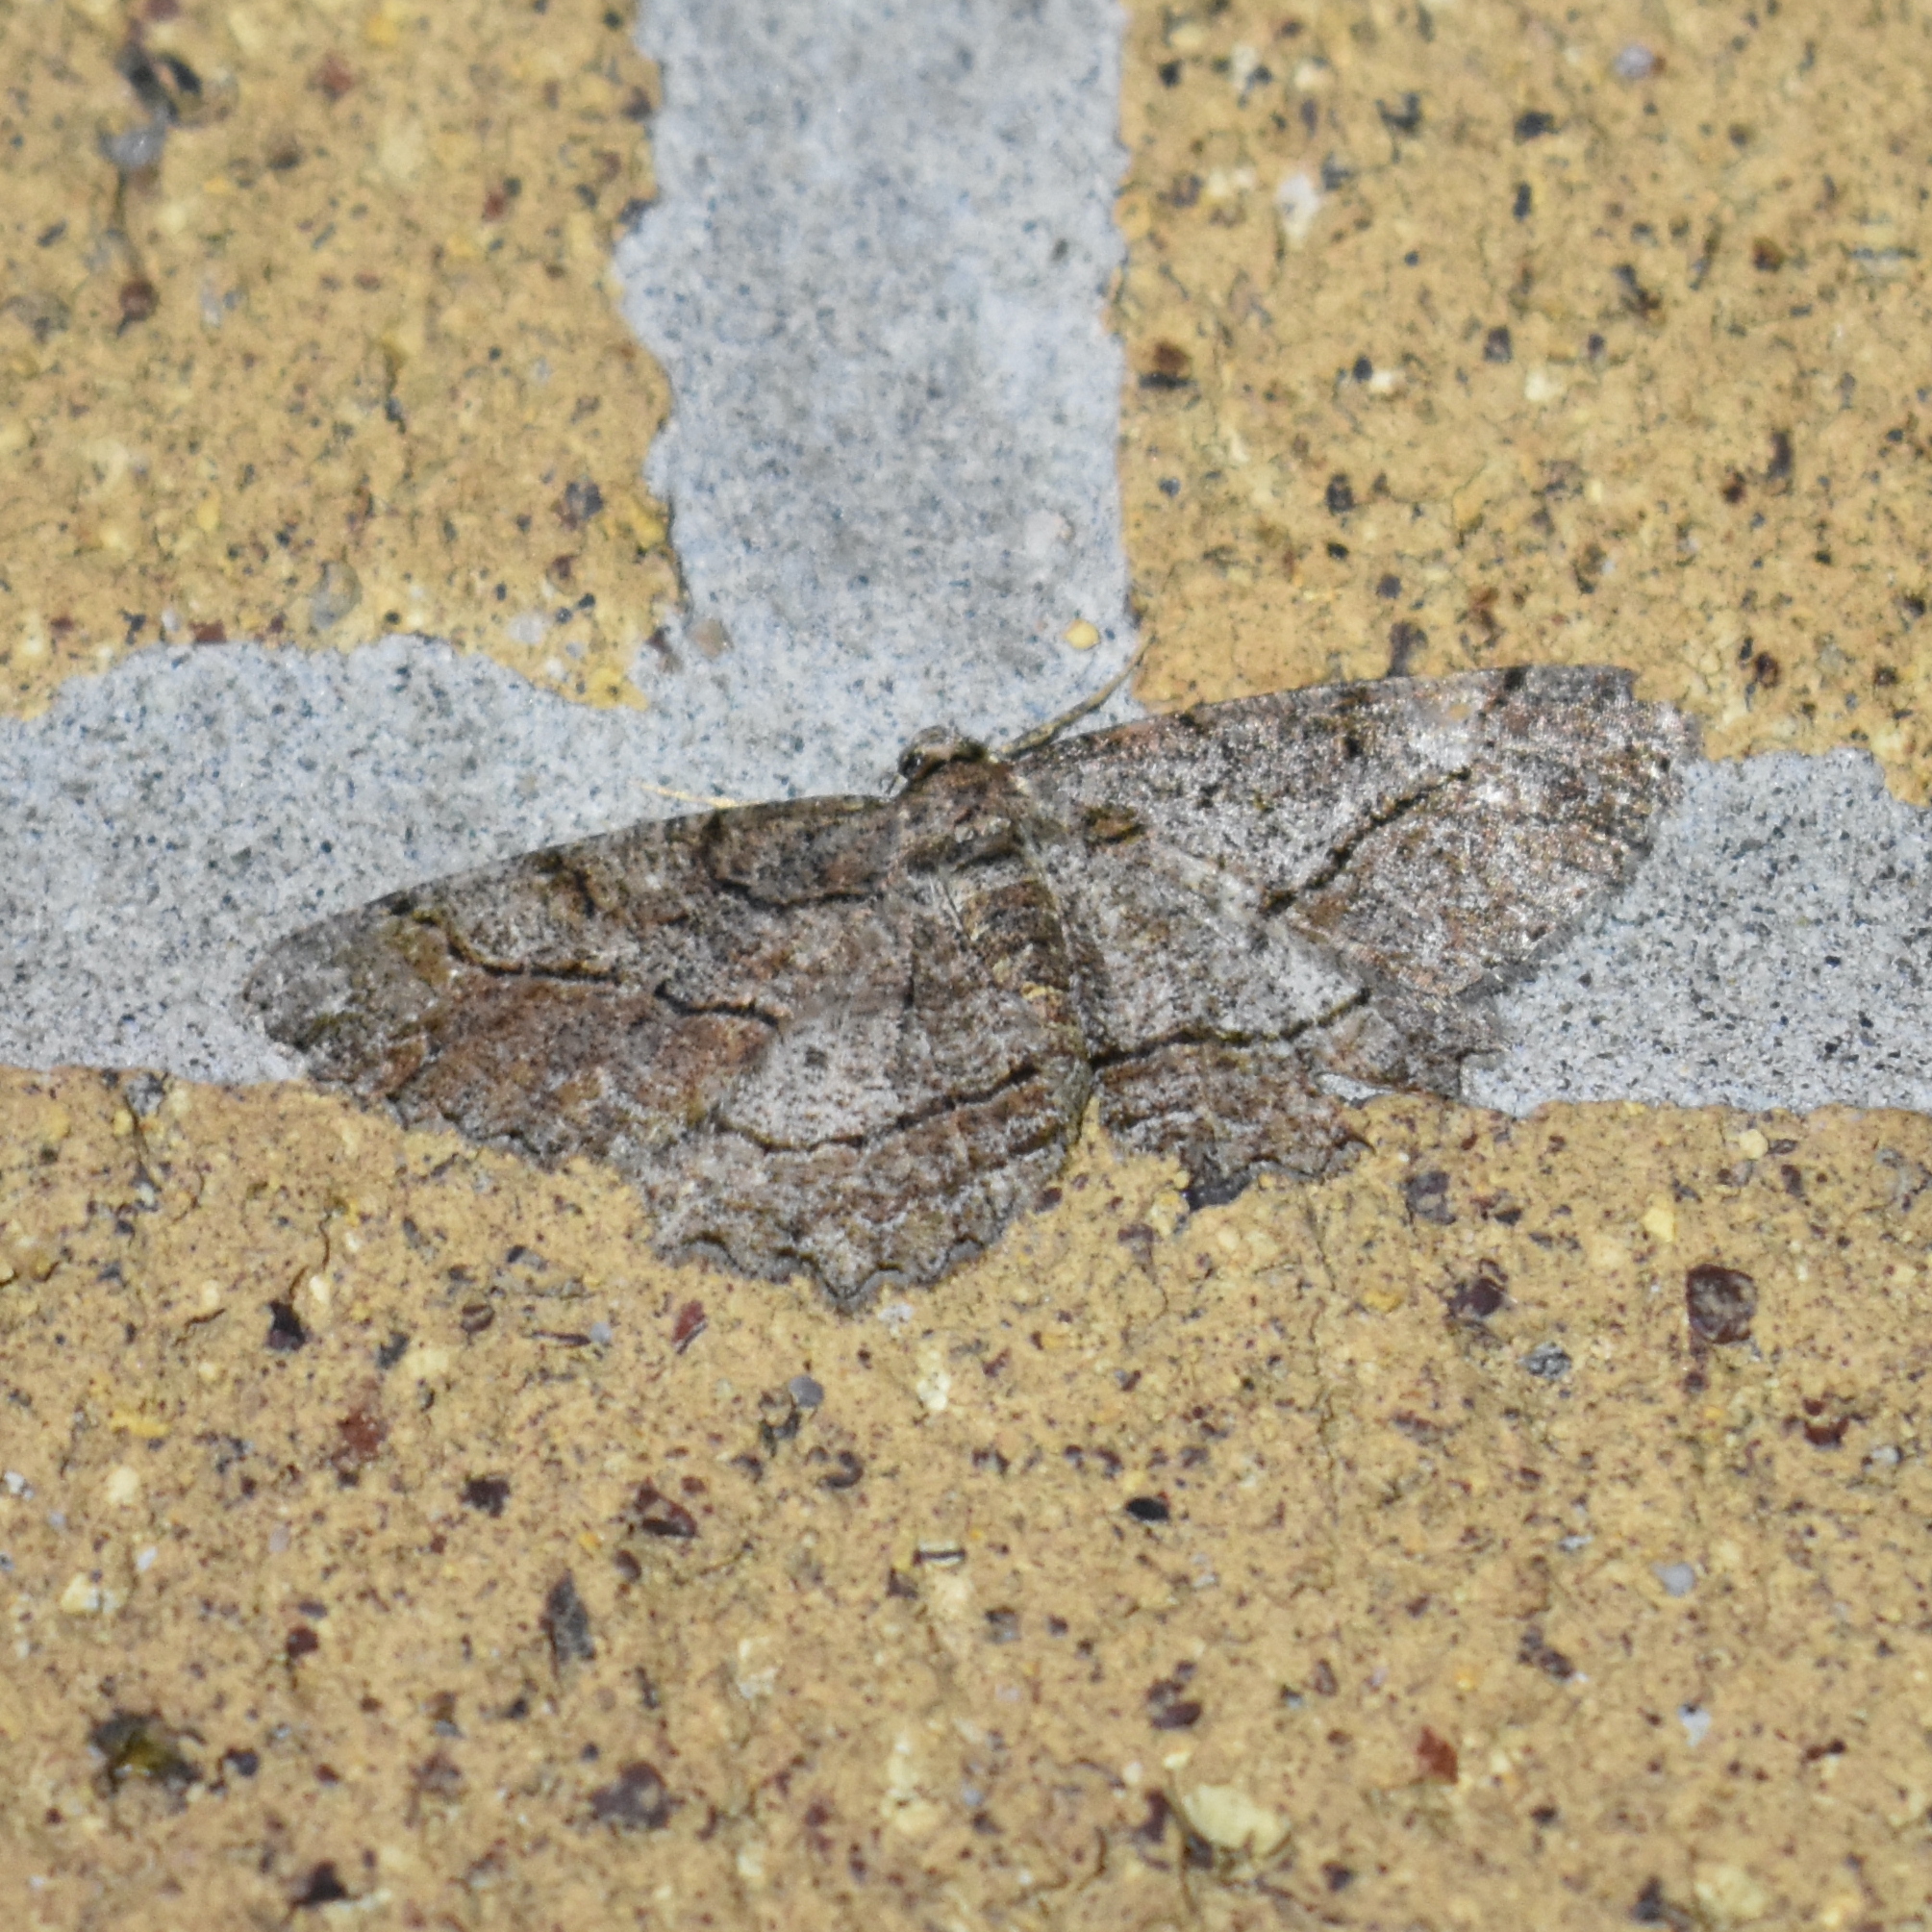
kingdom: Animalia
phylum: Arthropoda
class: Insecta
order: Lepidoptera
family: Geometridae
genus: Neoalcis
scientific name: Neoalcis californiaria
